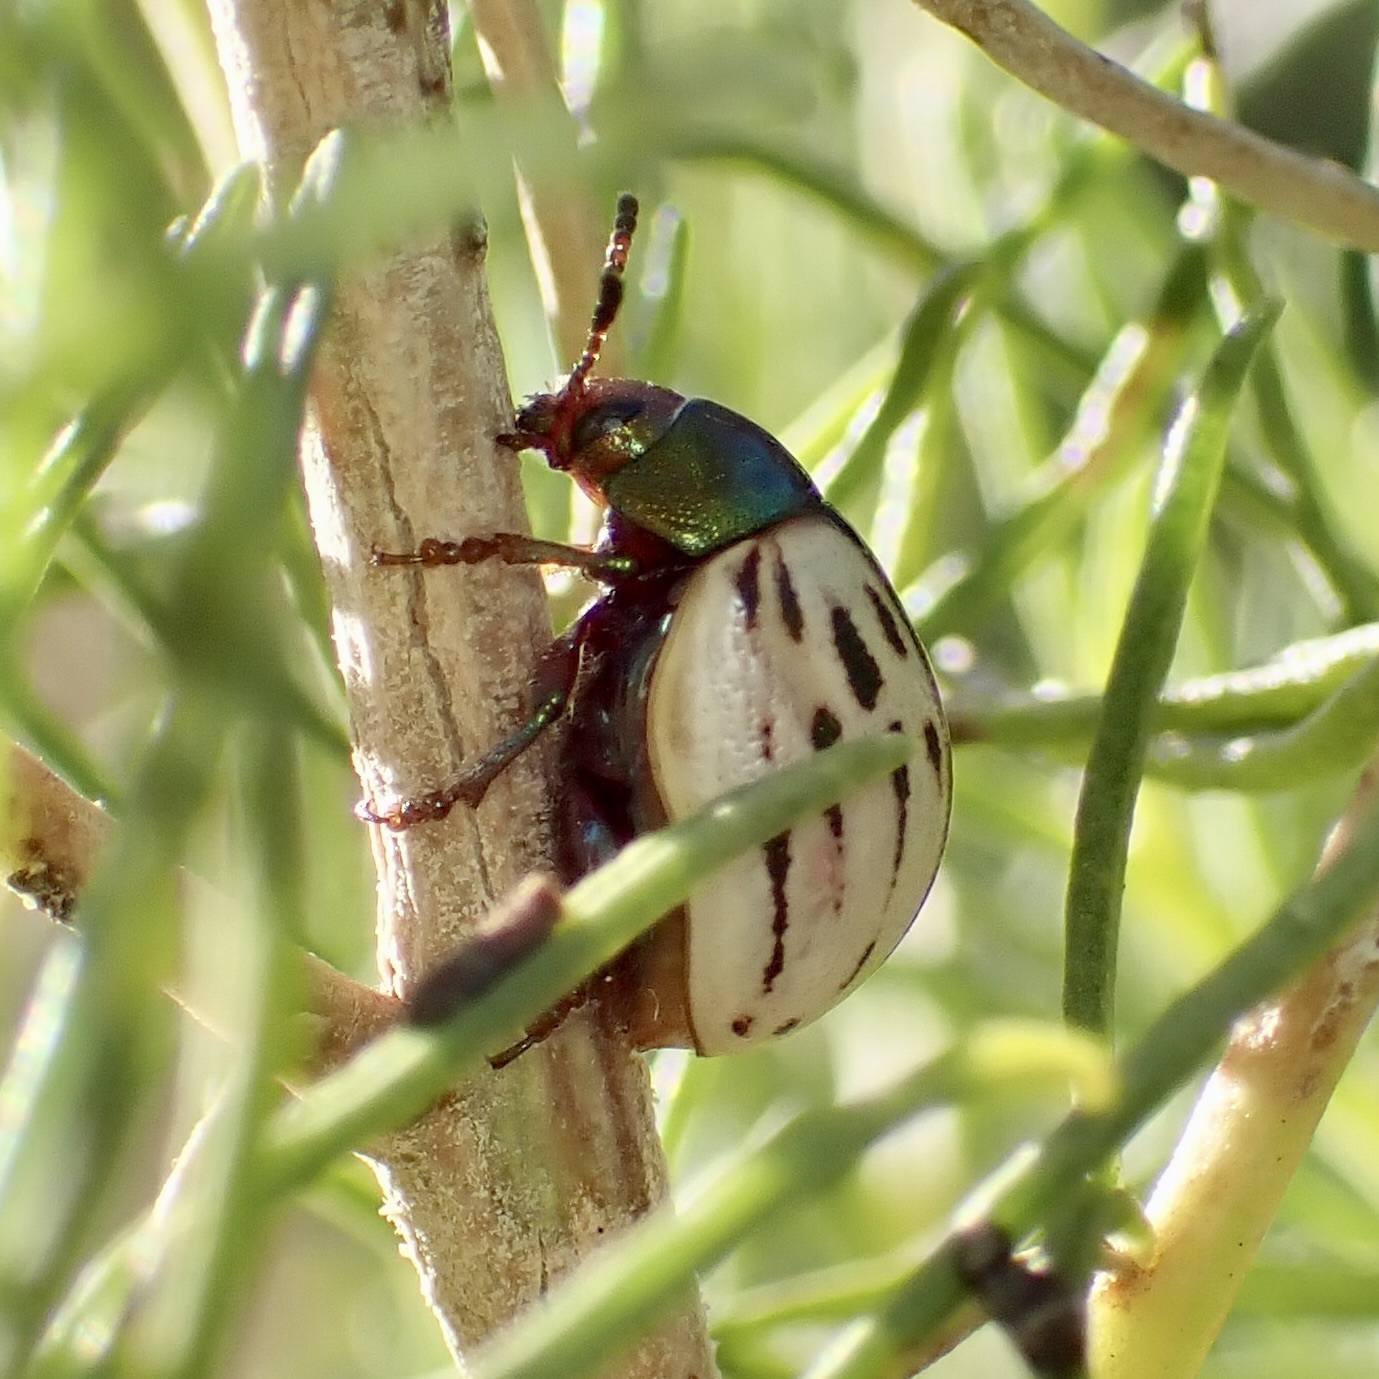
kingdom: Animalia
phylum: Arthropoda
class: Insecta
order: Coleoptera
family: Chrysomelidae
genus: Leptinotarsa
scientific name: Leptinotarsa lineolata
